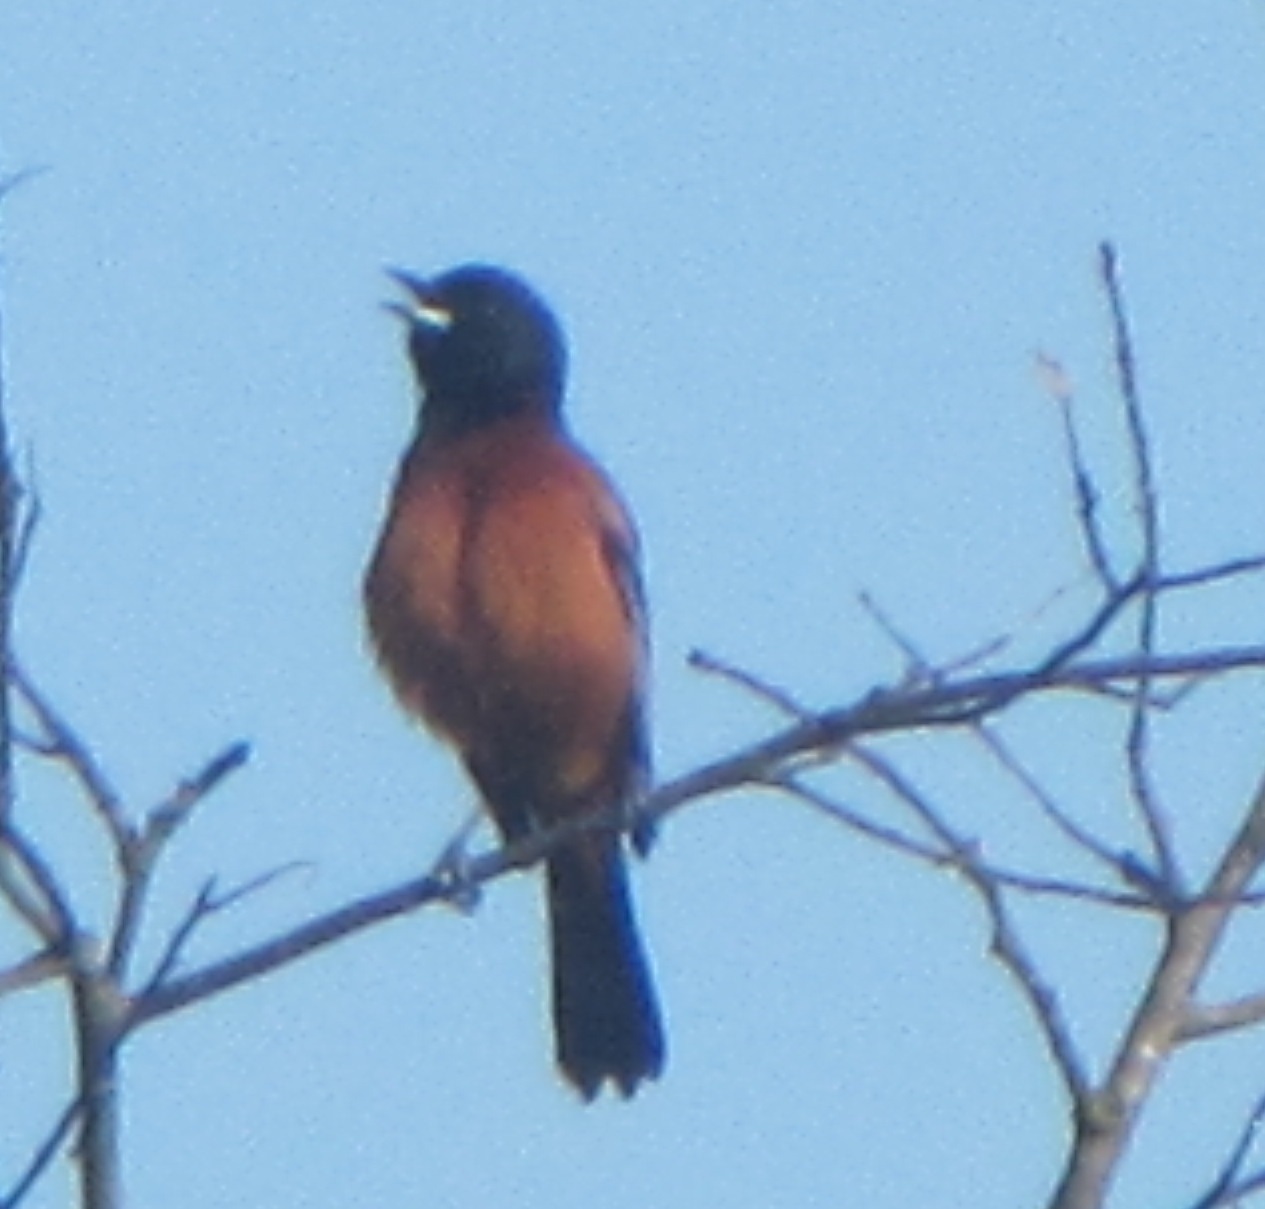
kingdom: Animalia
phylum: Chordata
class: Aves
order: Passeriformes
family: Icteridae
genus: Icterus
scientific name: Icterus spurius
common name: Orchard oriole
